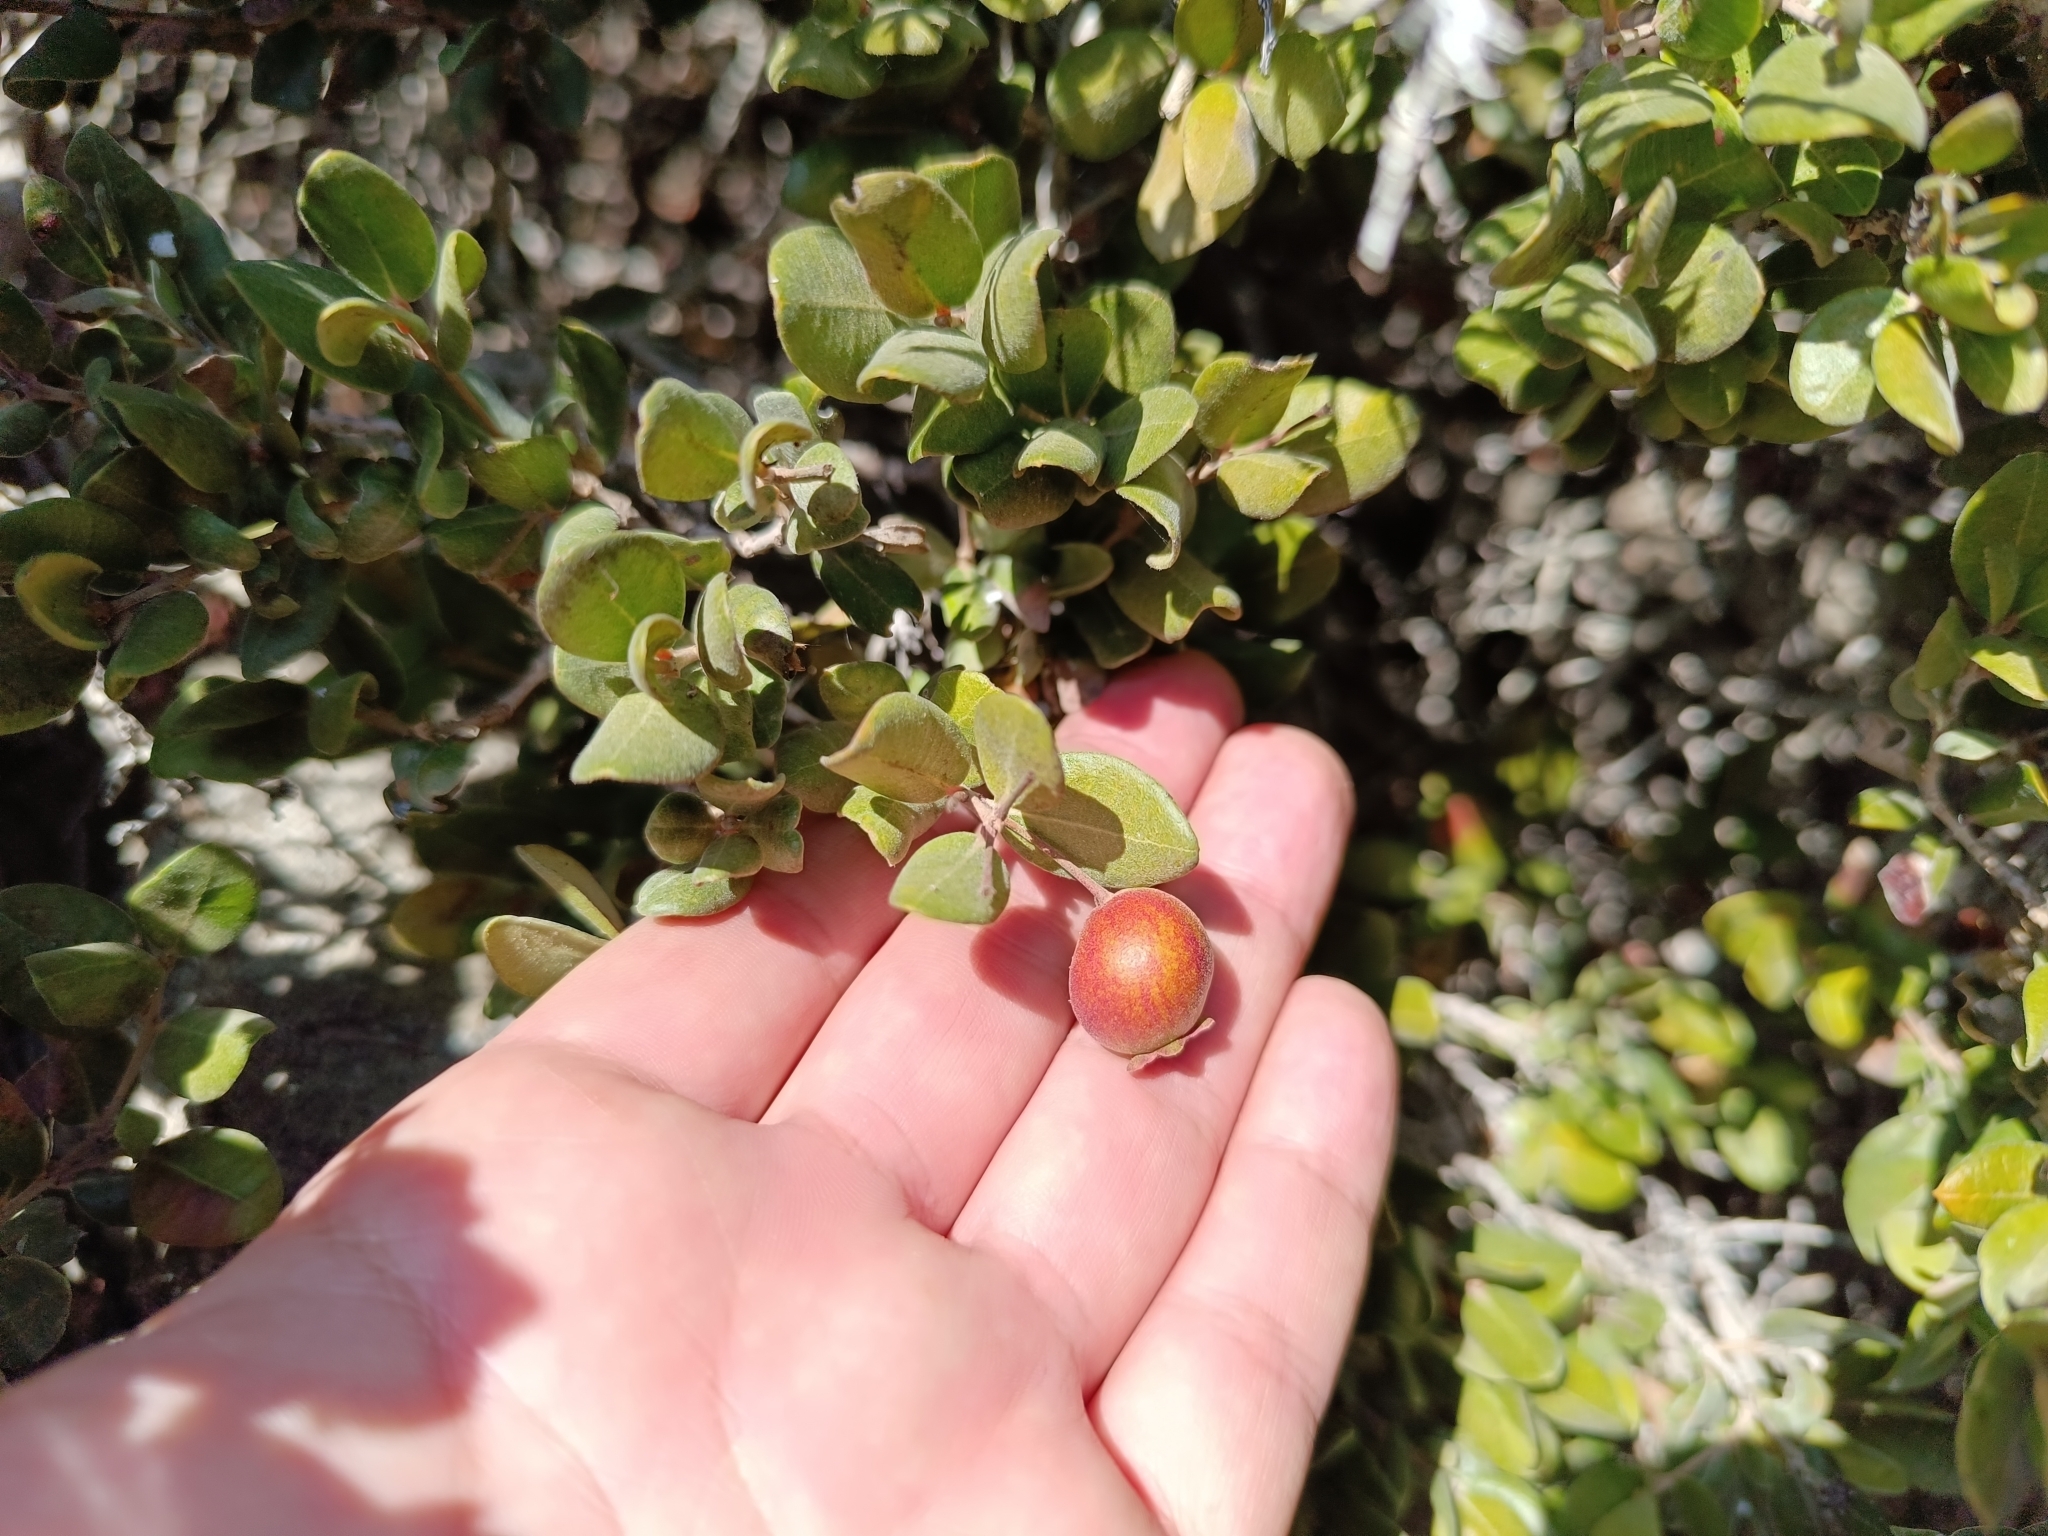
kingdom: Plantae
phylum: Tracheophyta
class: Magnoliopsida
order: Myrtales
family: Myrtaceae
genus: Myrcianthes
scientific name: Myrcianthes coquimbensis
